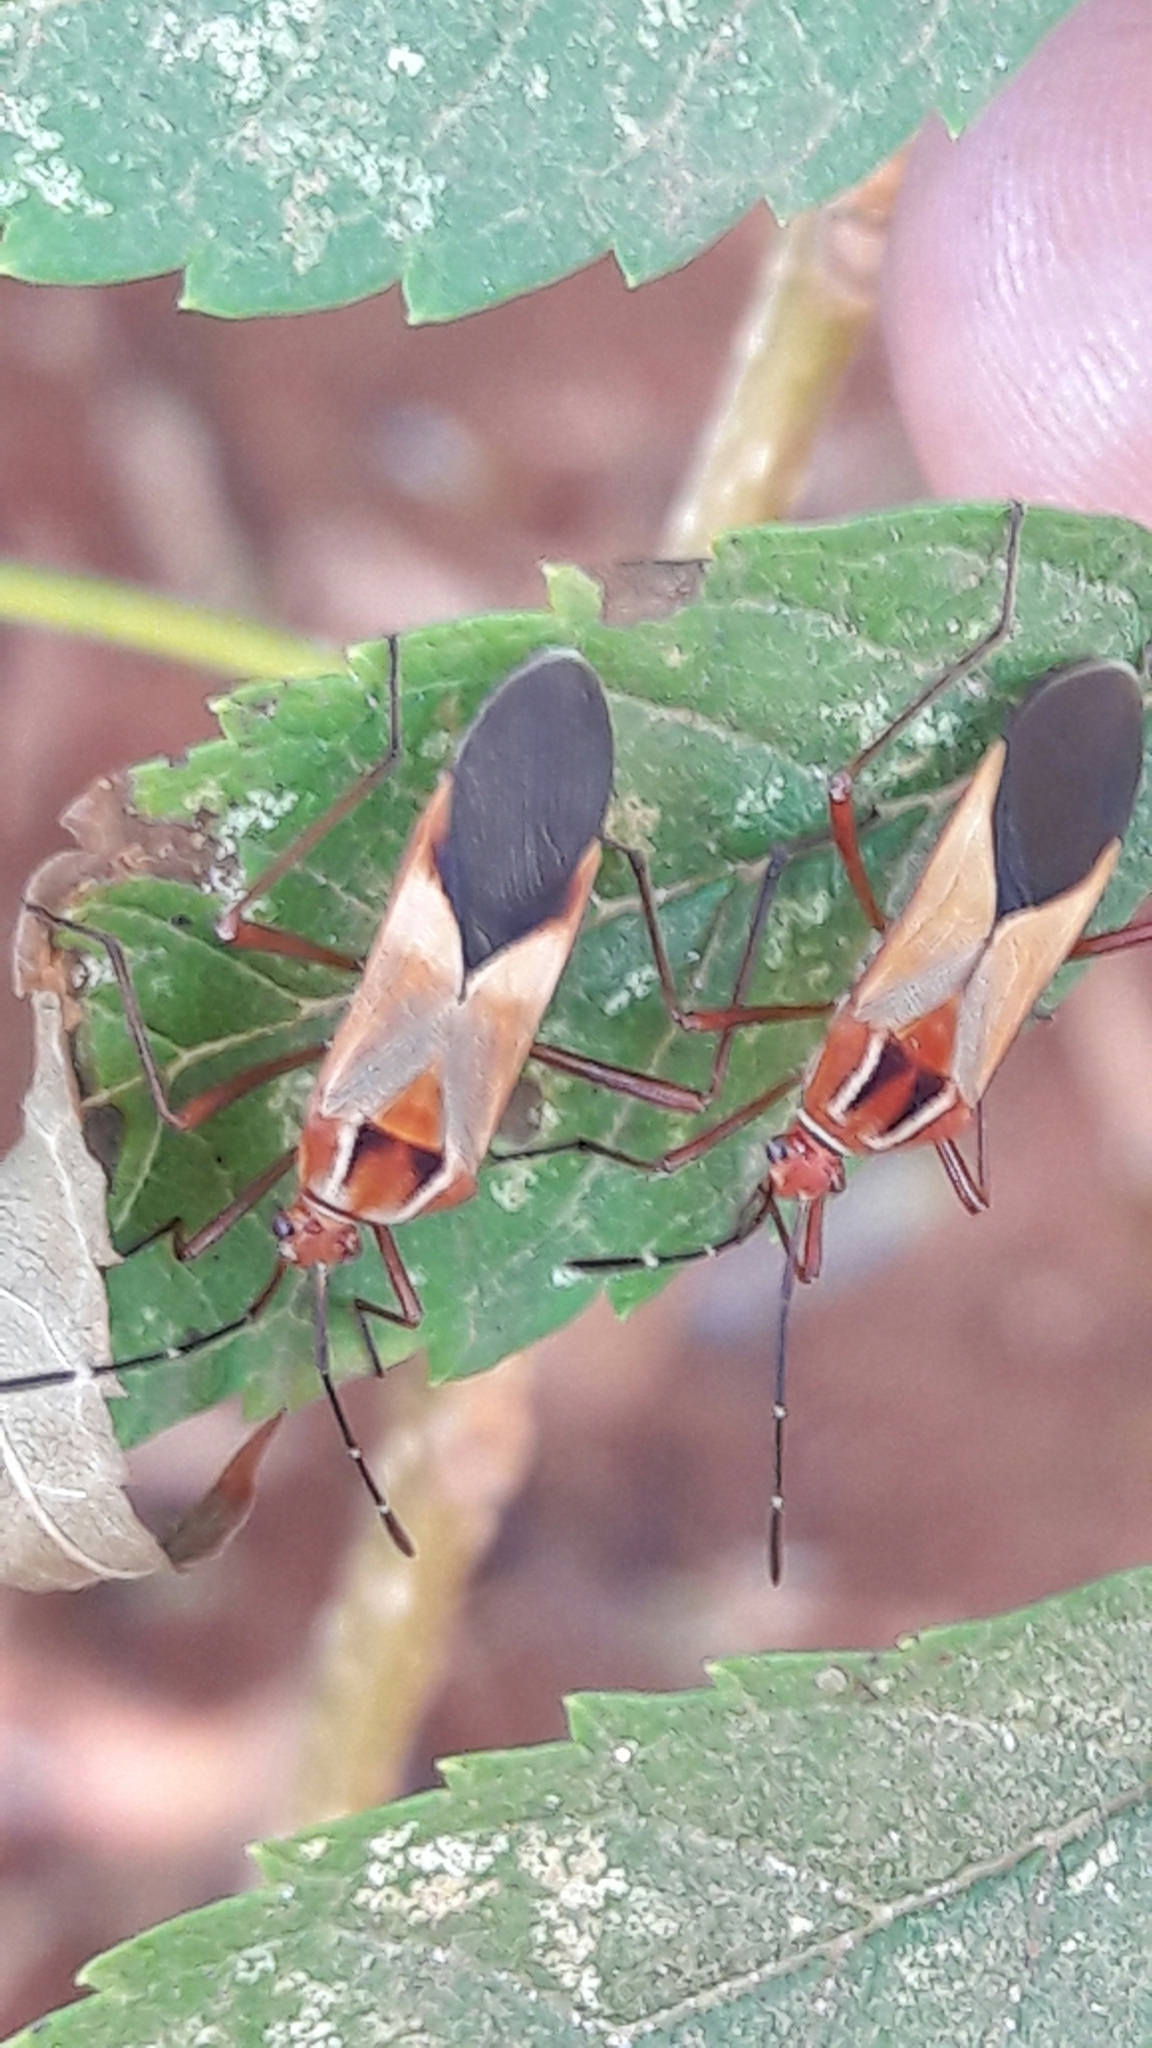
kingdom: Animalia
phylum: Arthropoda
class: Insecta
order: Hemiptera
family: Coreidae
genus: Hypselonotus
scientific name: Hypselonotus interruptus
